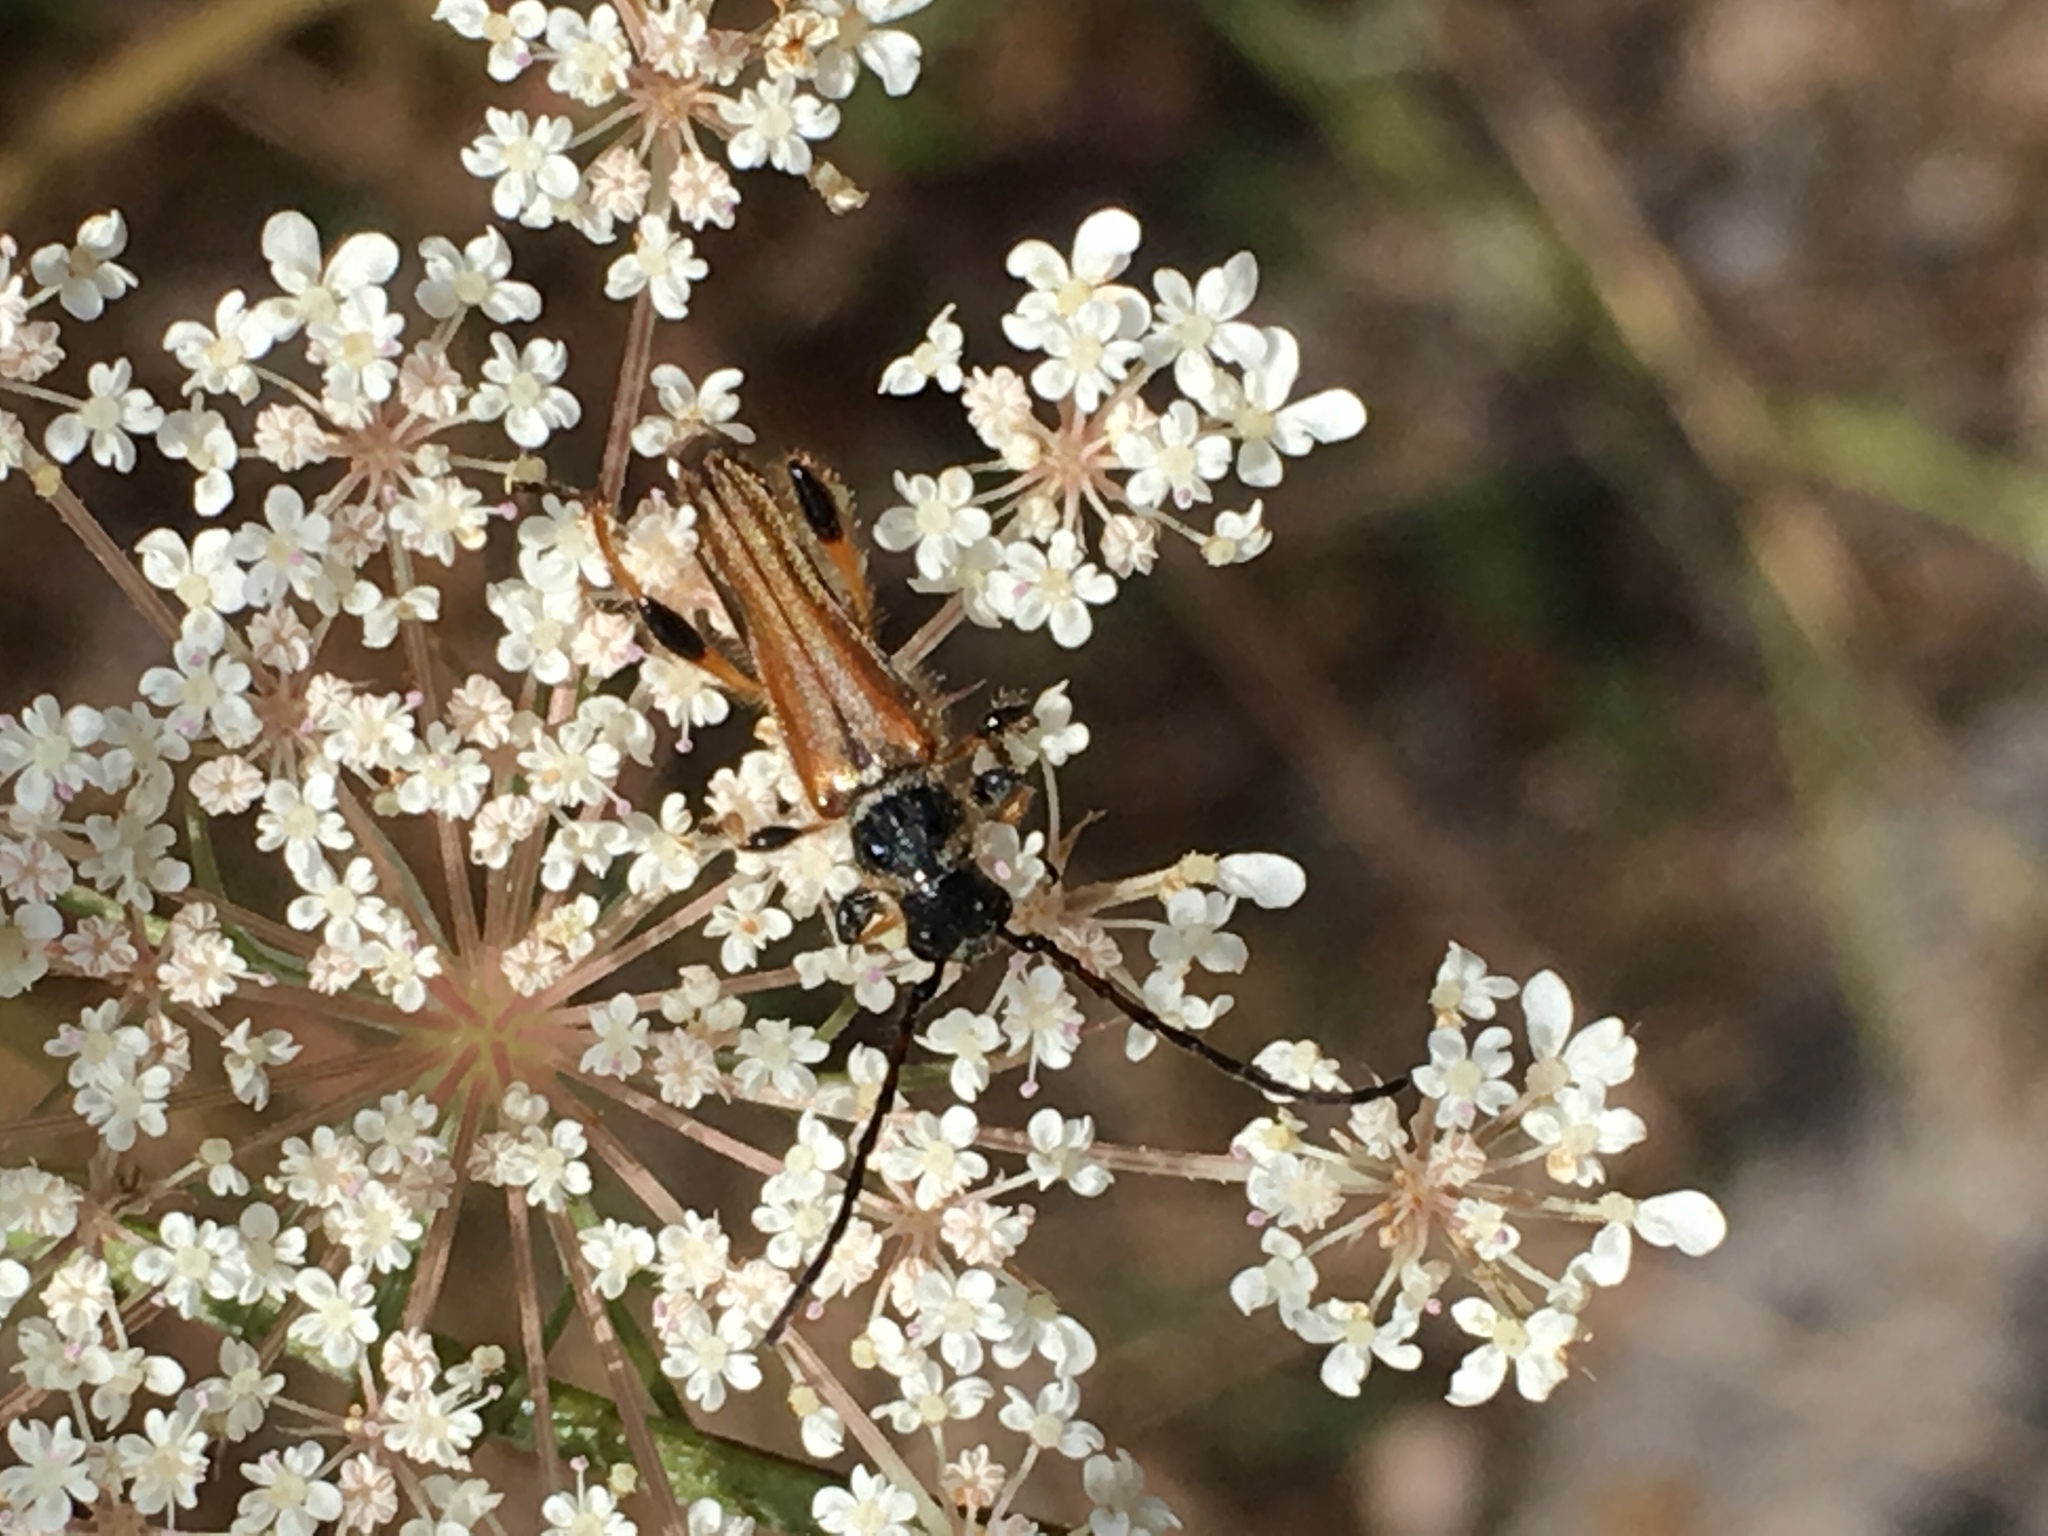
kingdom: Animalia
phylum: Arthropoda
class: Insecta
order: Coleoptera
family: Cerambycidae
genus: Stenopterus
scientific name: Stenopterus ater
